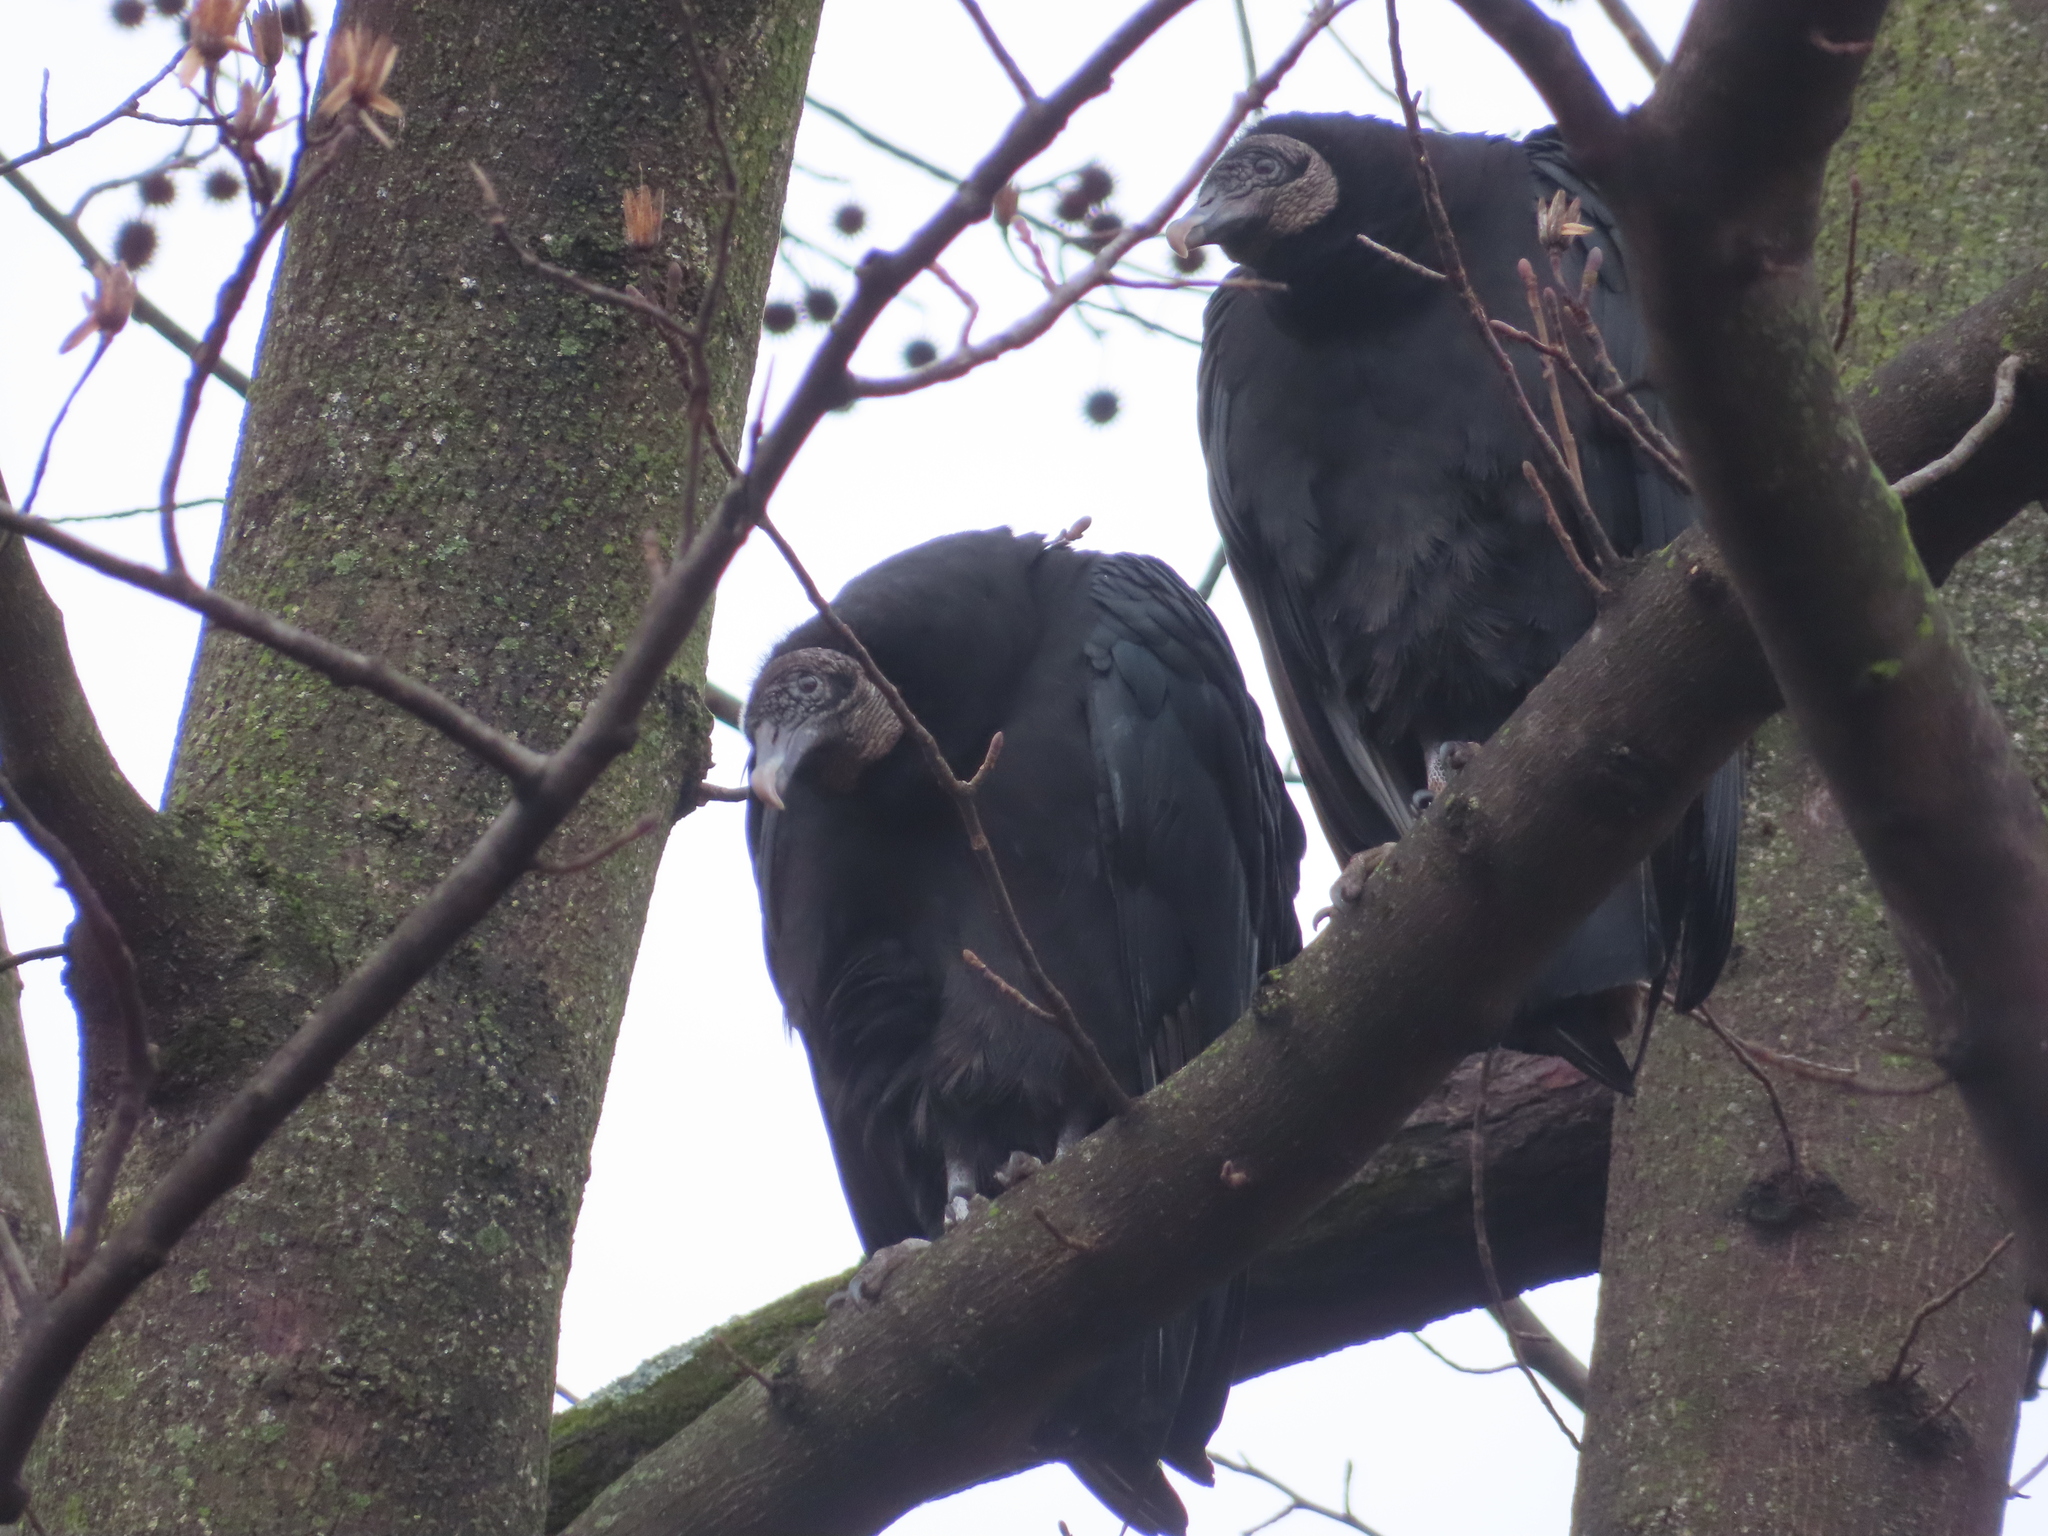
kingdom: Animalia
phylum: Chordata
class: Aves
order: Accipitriformes
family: Cathartidae
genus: Coragyps
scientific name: Coragyps atratus
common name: Black vulture
